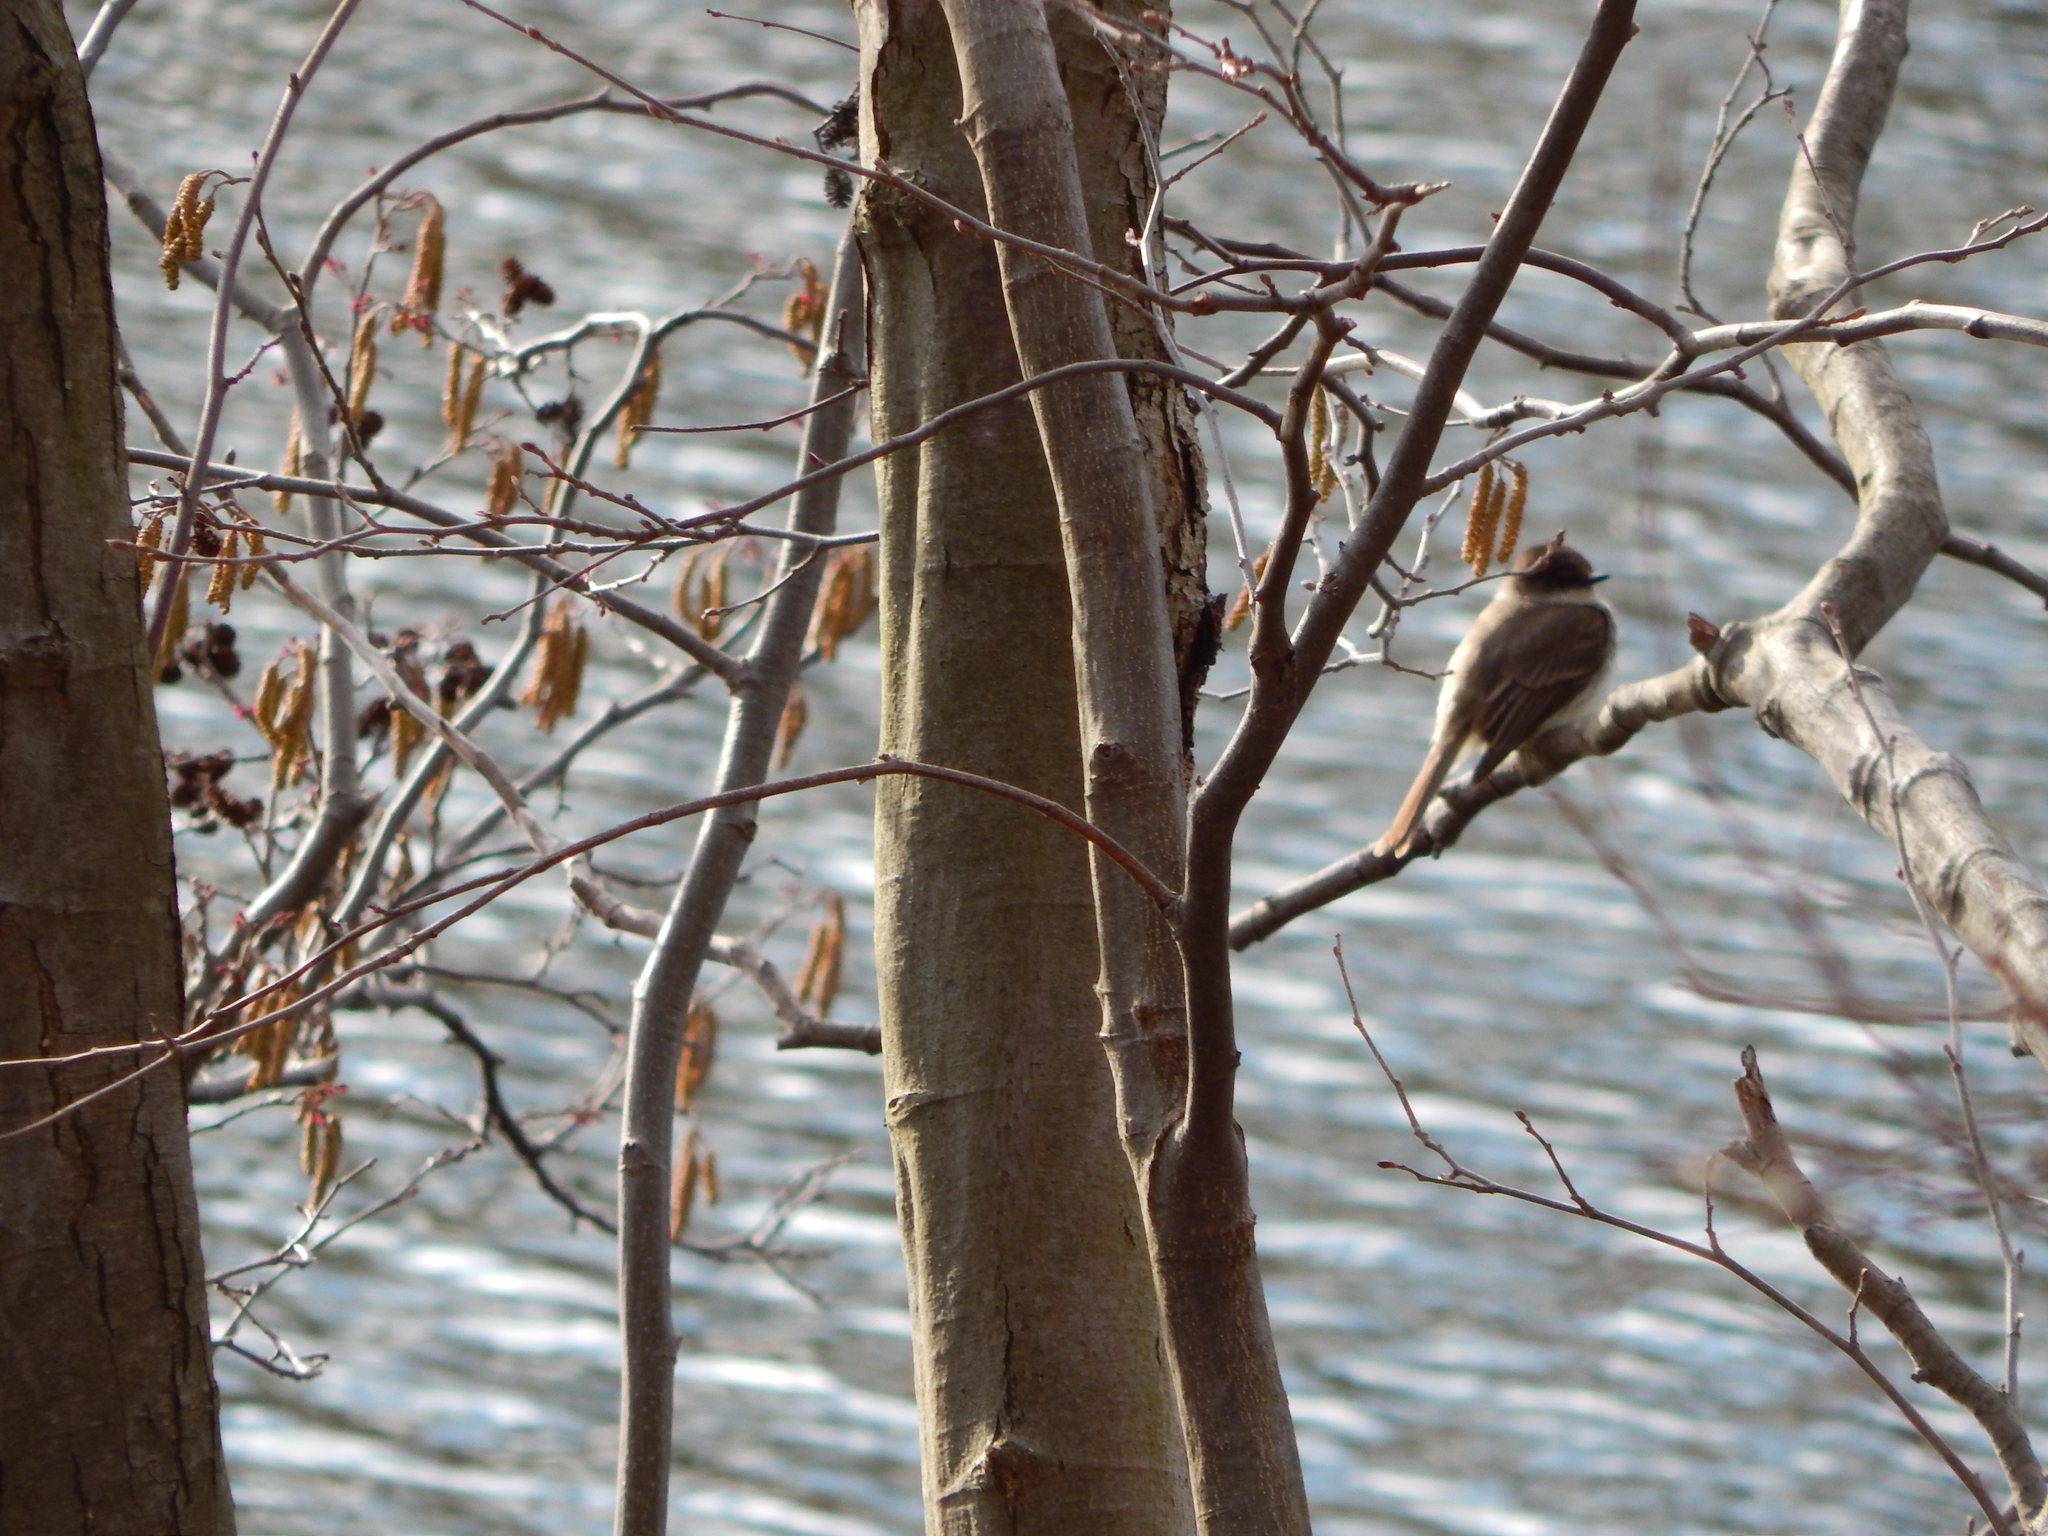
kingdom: Animalia
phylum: Chordata
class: Aves
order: Passeriformes
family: Tyrannidae
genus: Sayornis
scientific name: Sayornis phoebe
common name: Eastern phoebe
